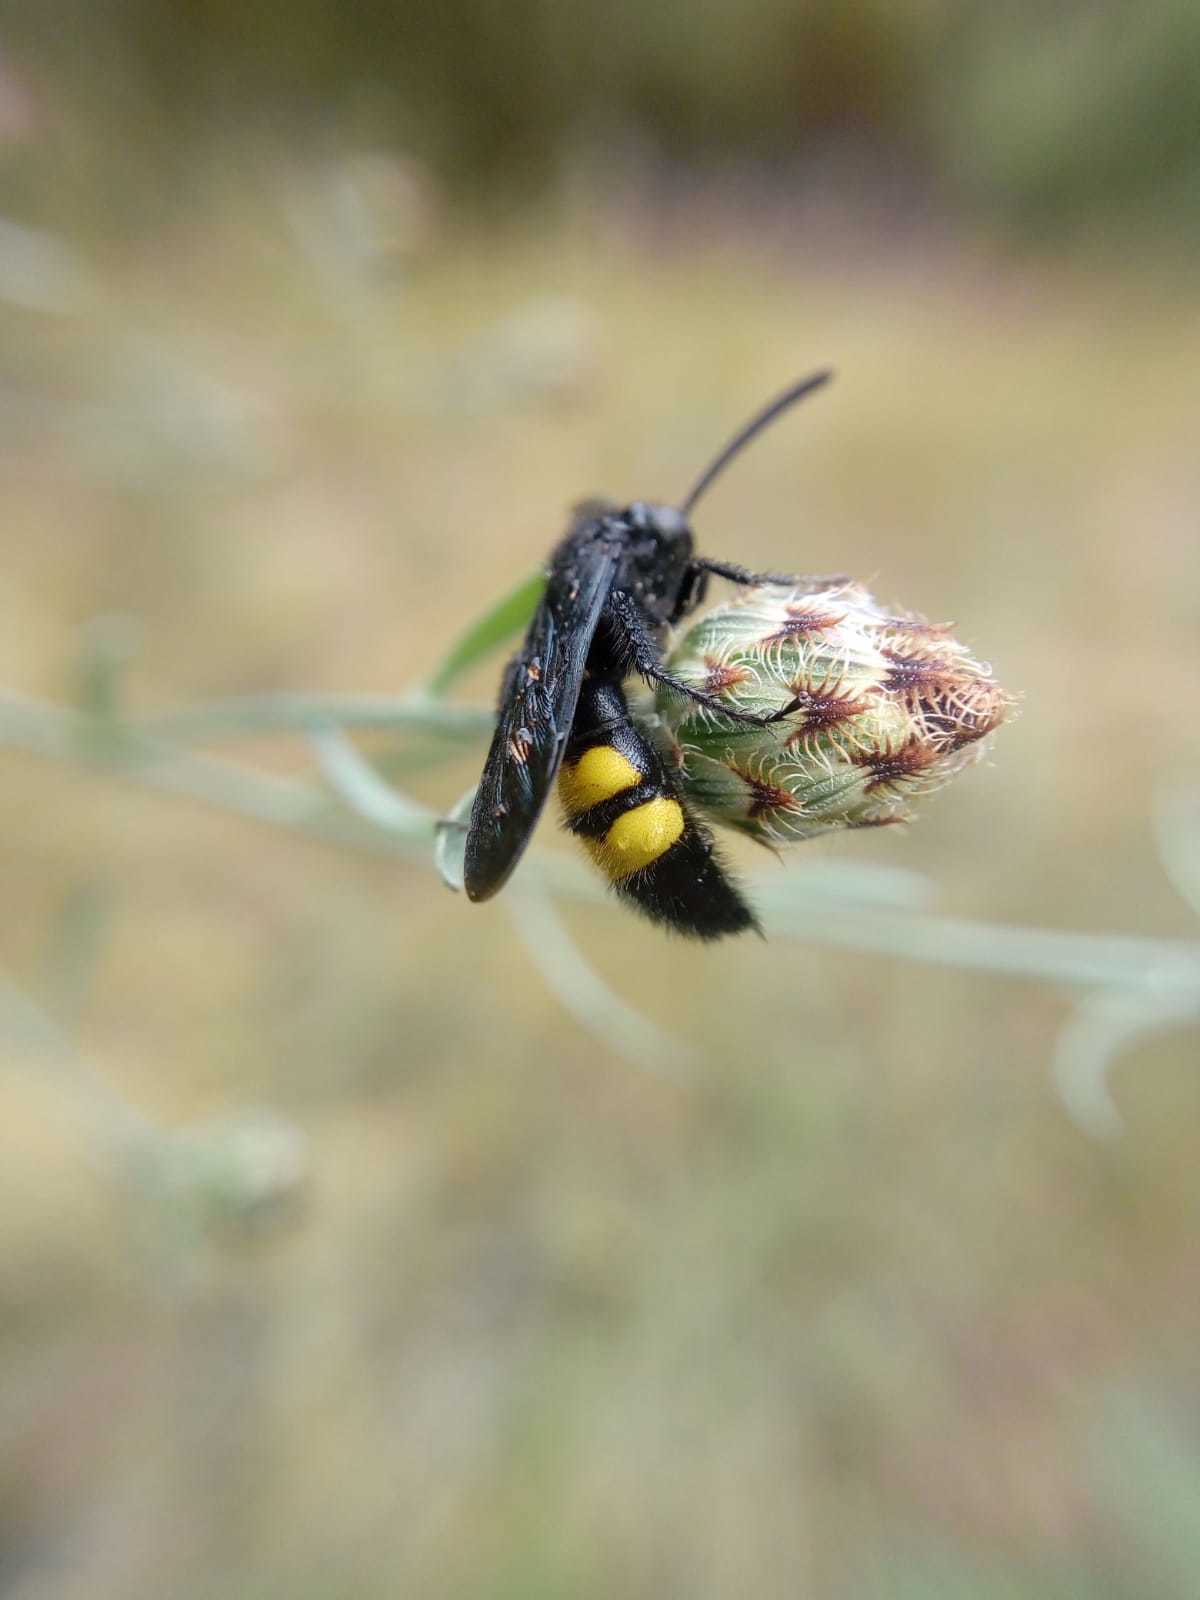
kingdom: Animalia
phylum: Arthropoda
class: Insecta
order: Hymenoptera
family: Scoliidae
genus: Scolia
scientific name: Scolia hirta
